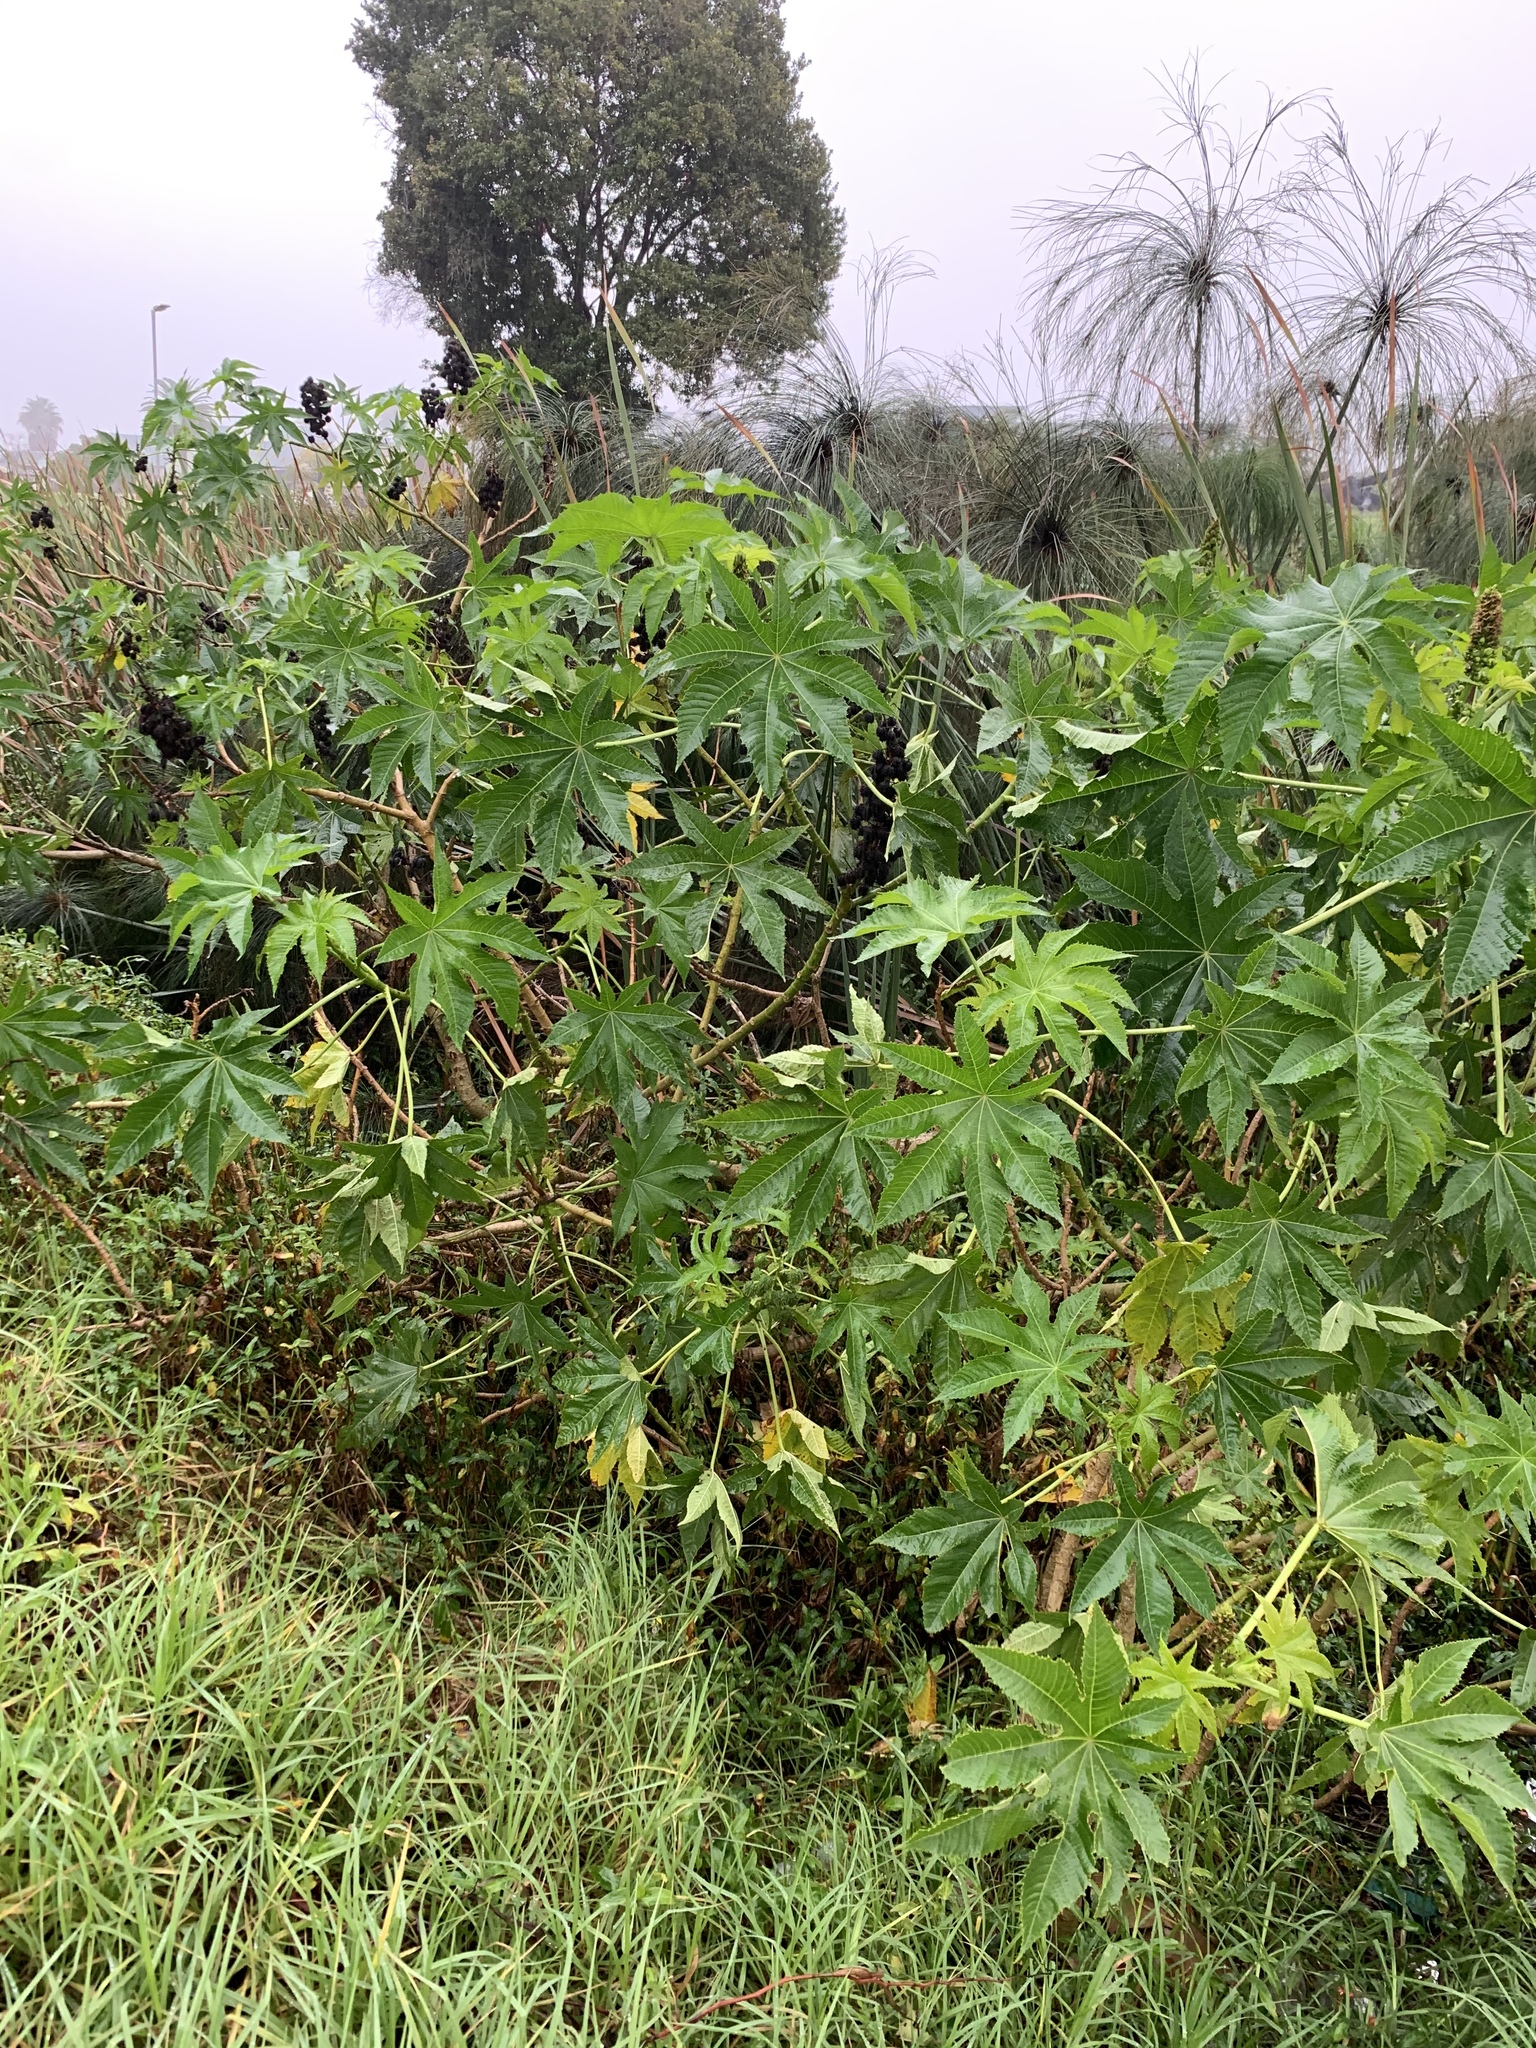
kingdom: Plantae
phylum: Tracheophyta
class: Magnoliopsida
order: Malpighiales
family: Euphorbiaceae
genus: Ricinus
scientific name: Ricinus communis
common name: Castor-oil-plant
